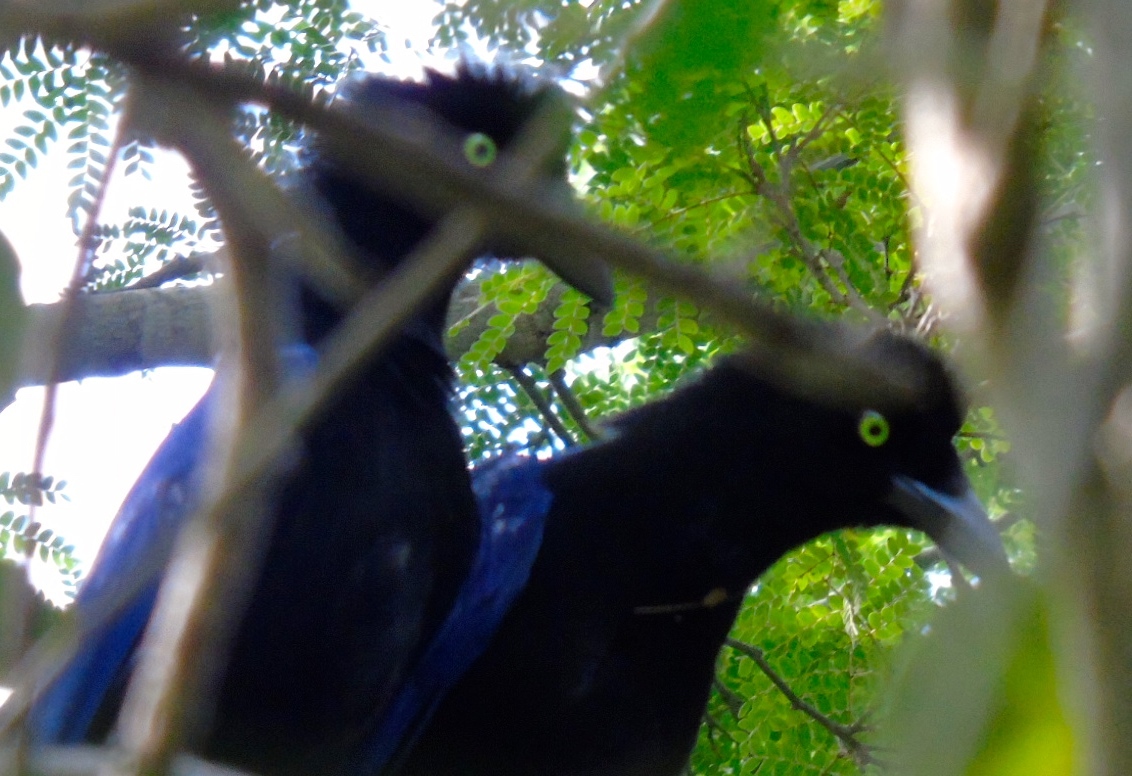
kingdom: Animalia
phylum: Chordata
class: Aves
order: Passeriformes
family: Corvidae
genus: Cyanocorax
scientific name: Cyanocorax beecheii
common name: Purplish-backed jay
